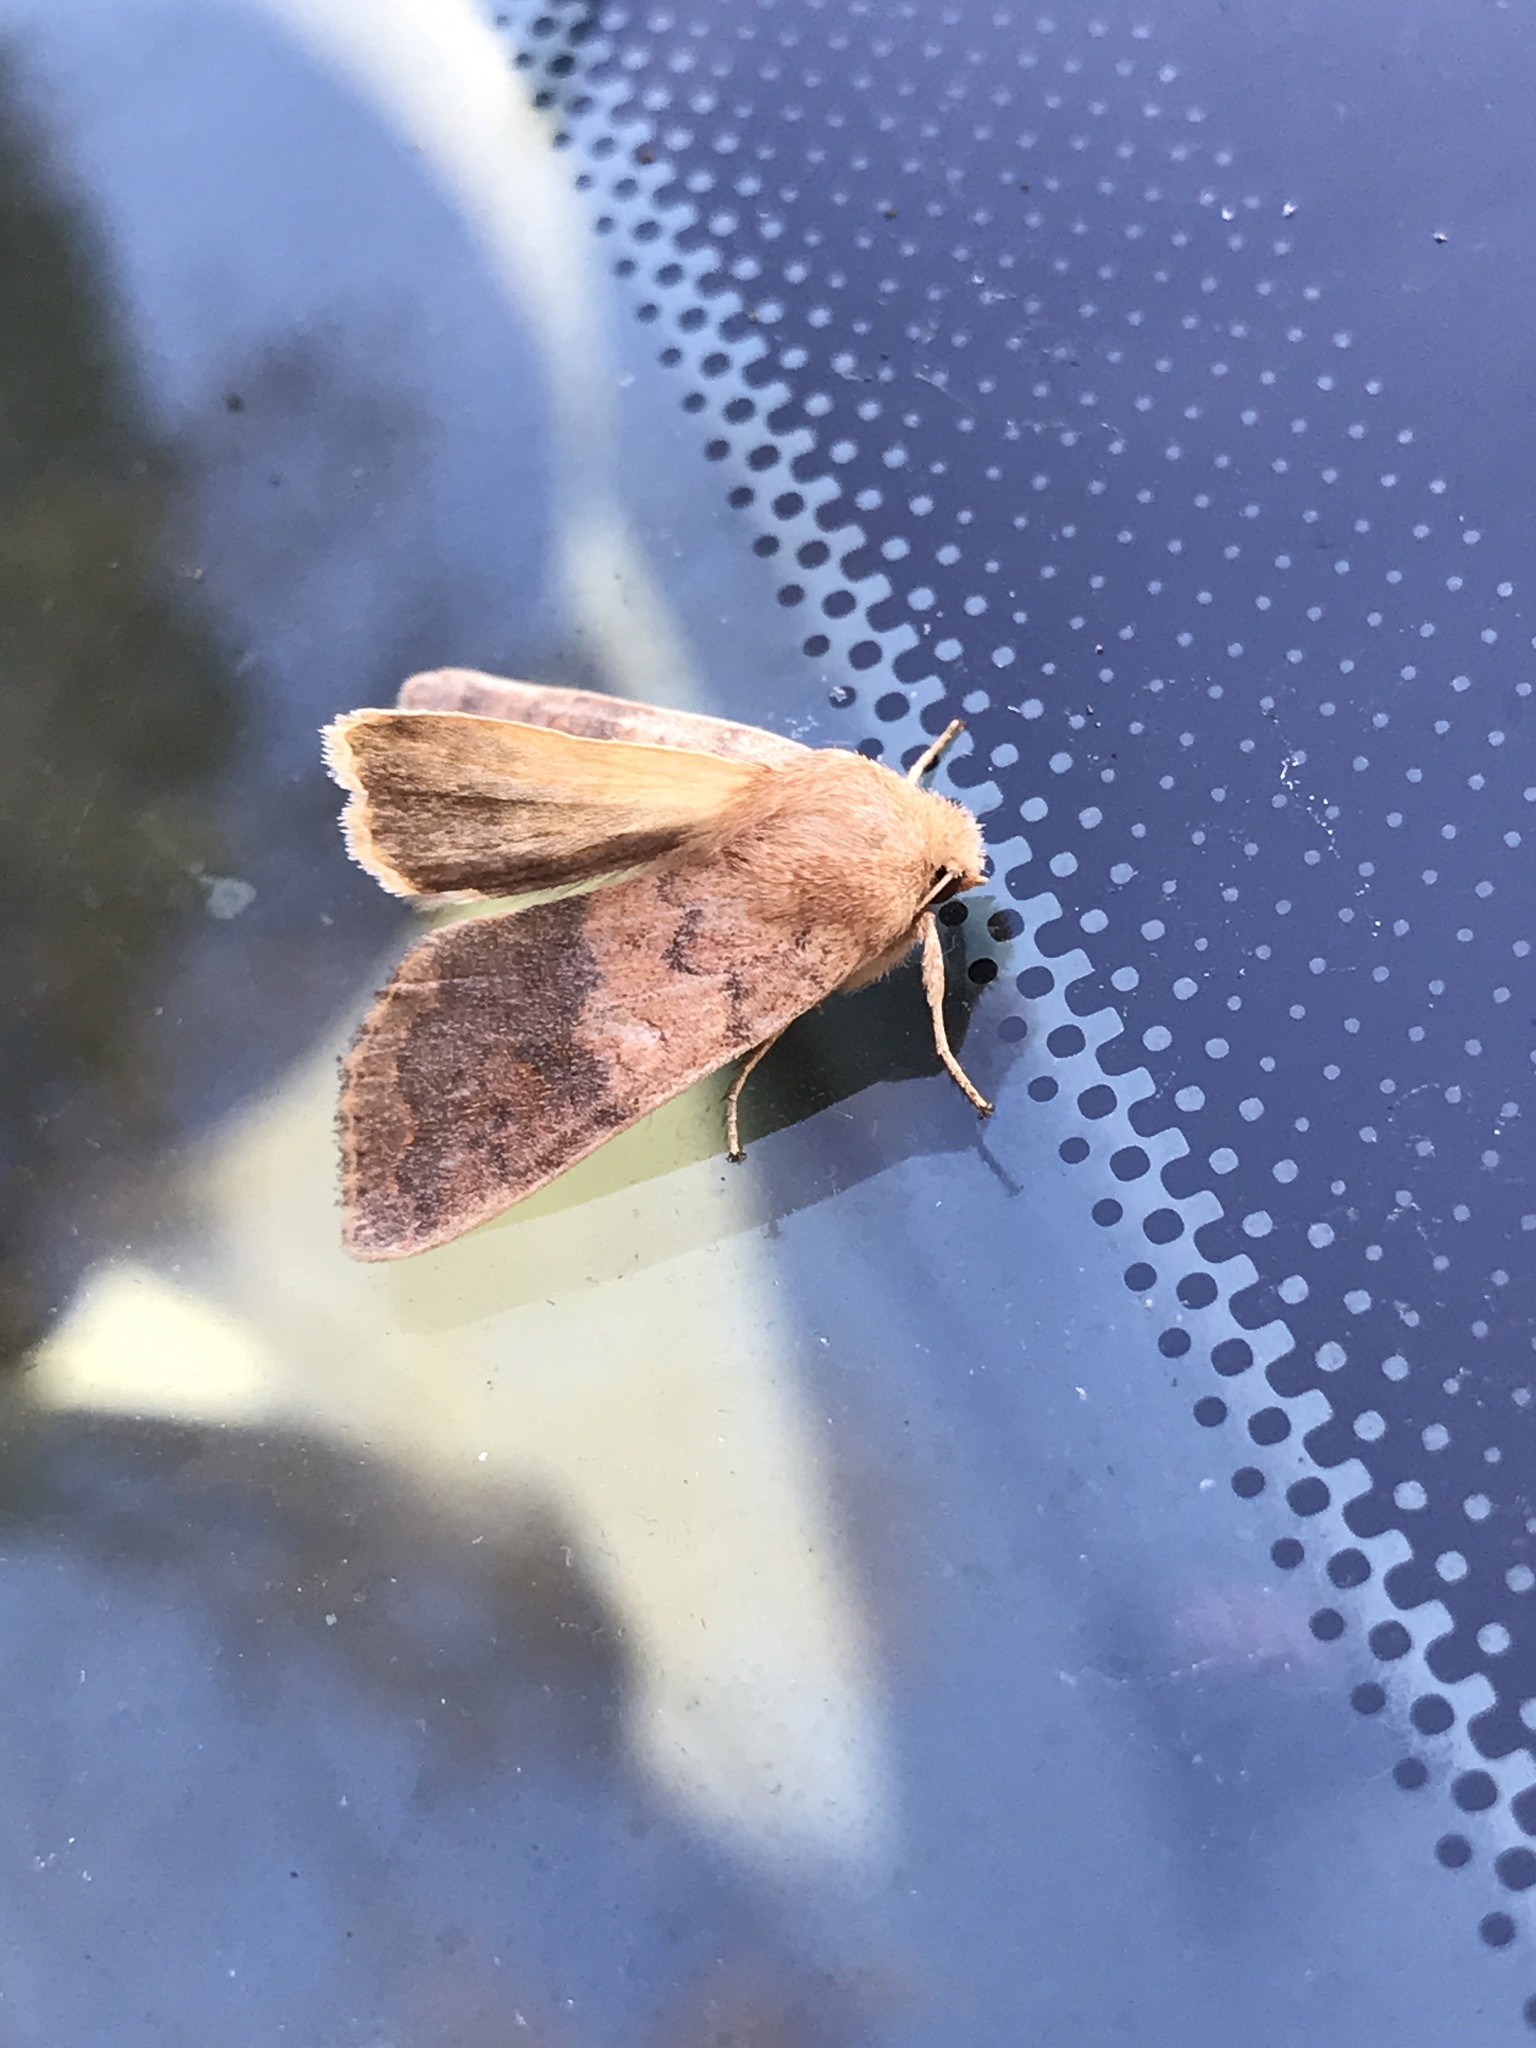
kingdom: Animalia
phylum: Arthropoda
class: Insecta
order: Lepidoptera
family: Noctuidae
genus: Agrochola
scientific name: Agrochola bicolorago
